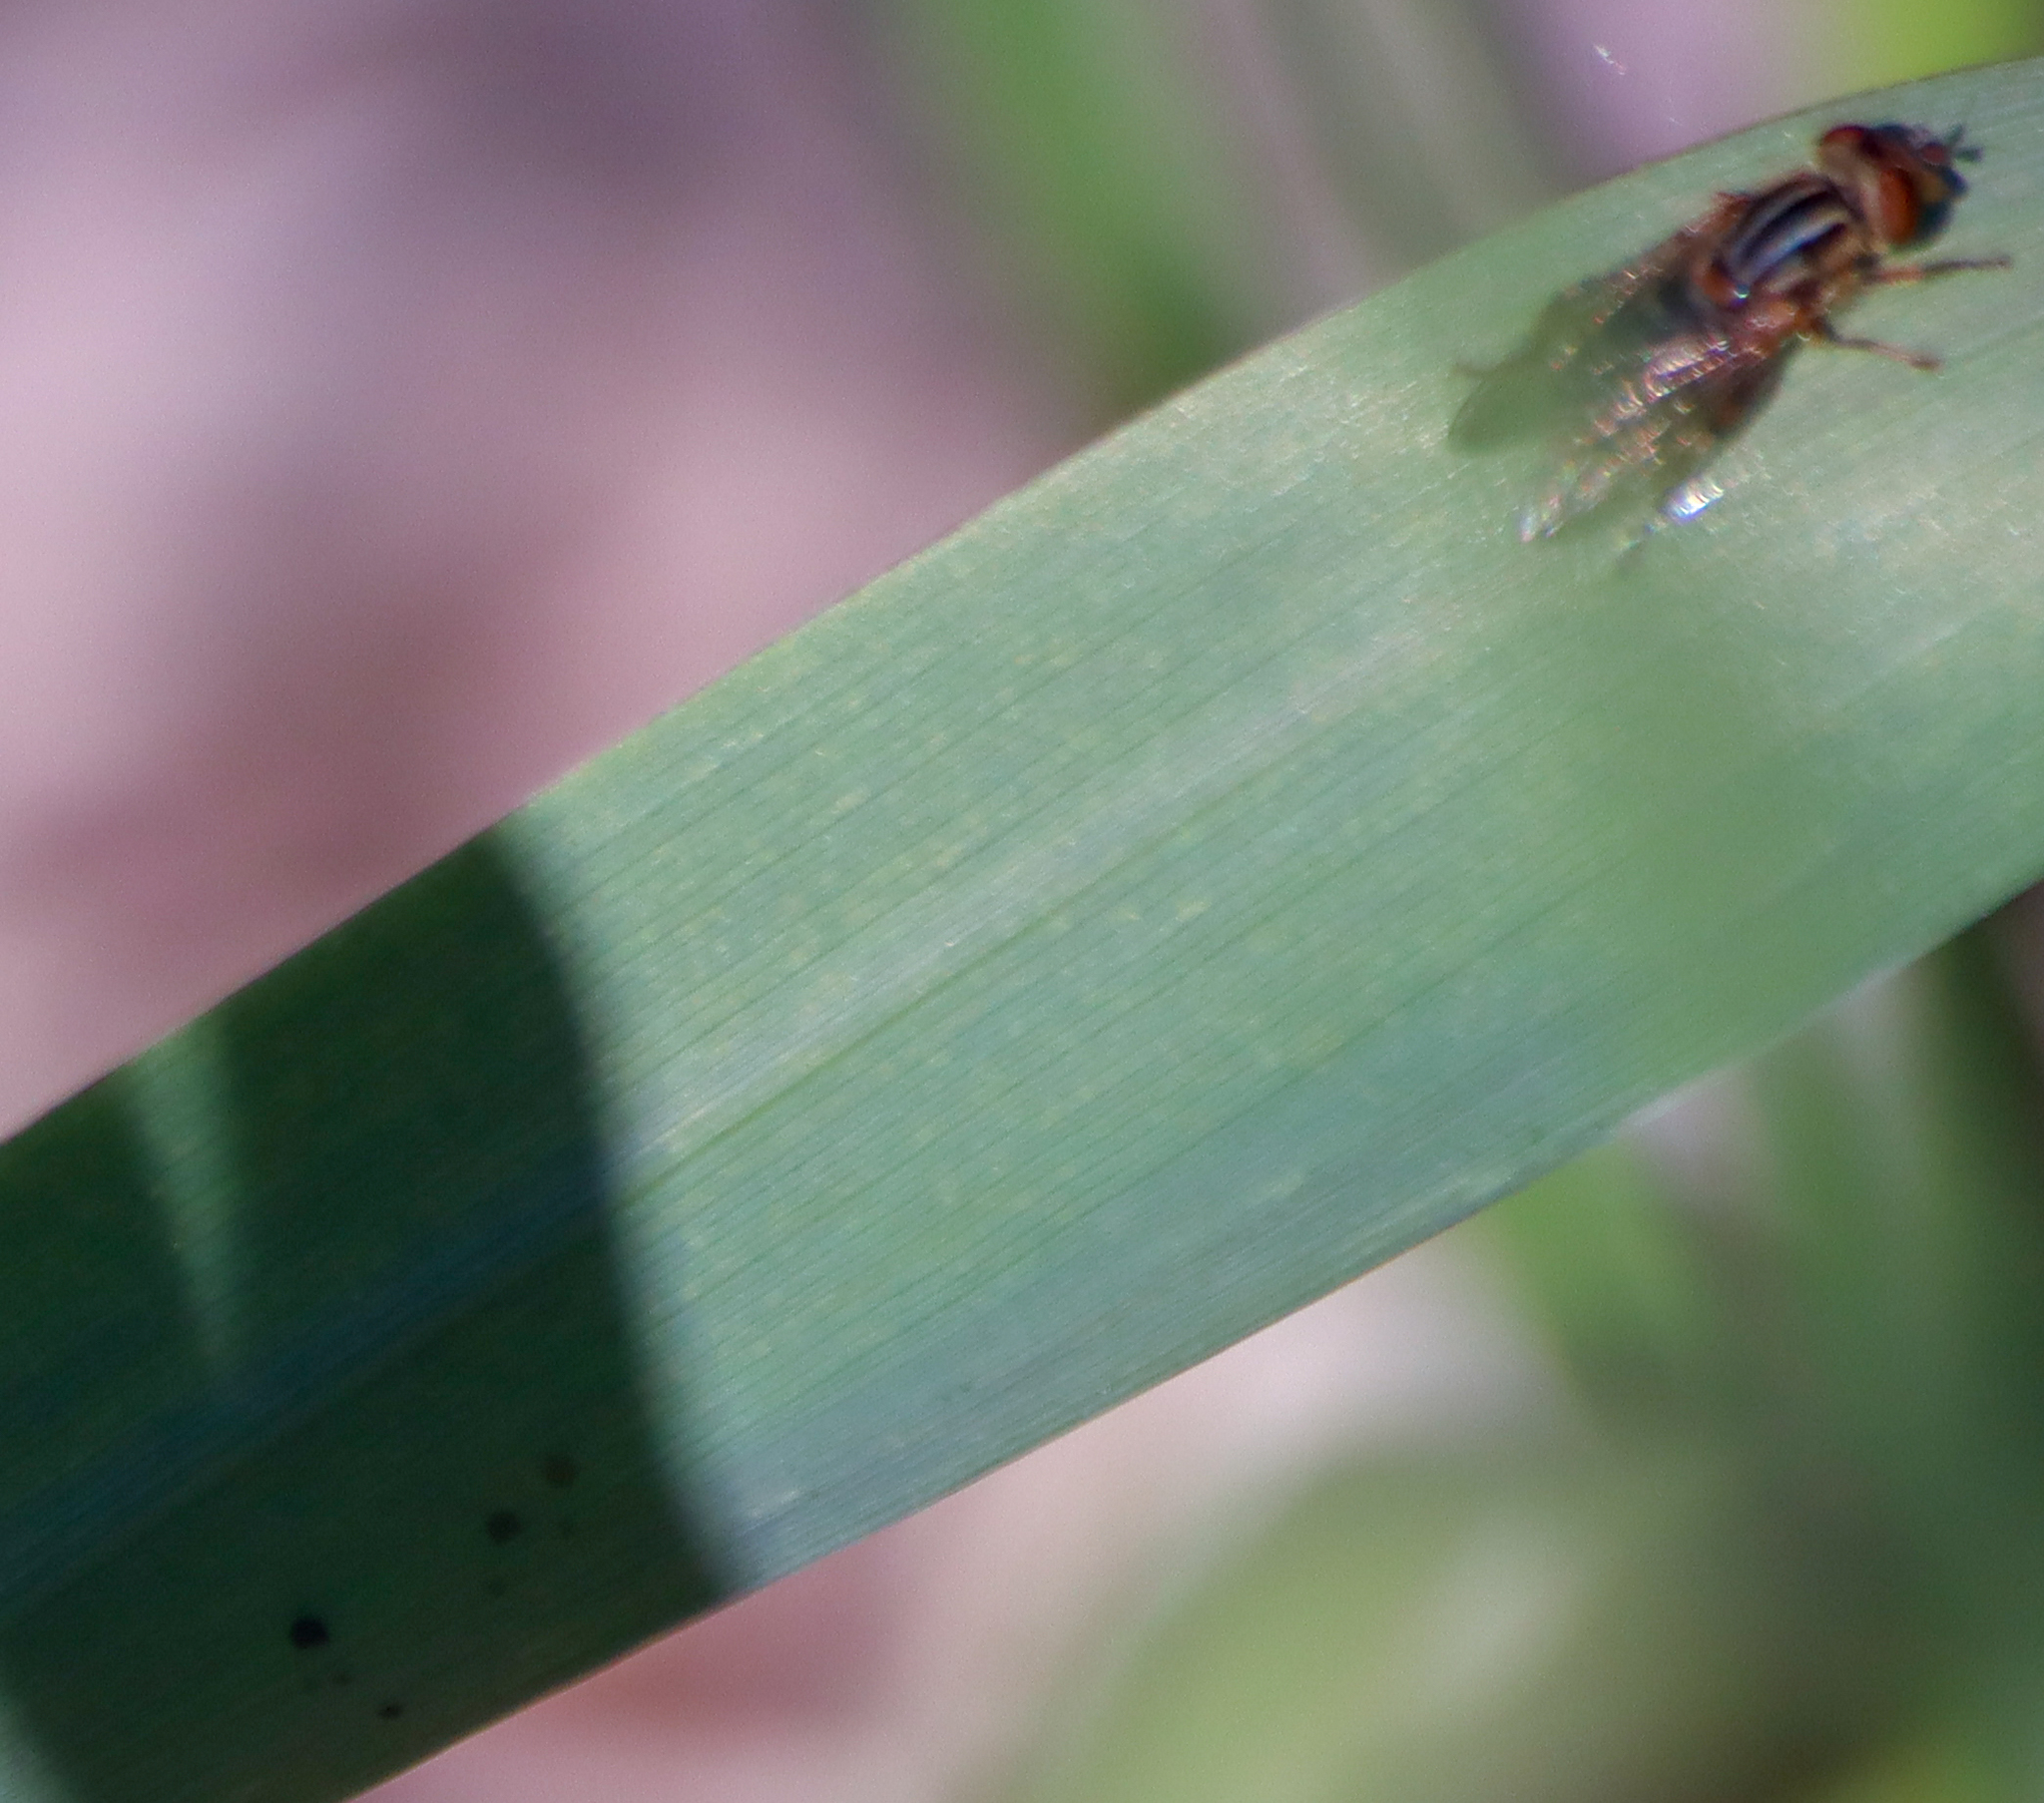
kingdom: Animalia
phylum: Arthropoda
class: Insecta
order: Diptera
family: Syrphidae
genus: Eurimyia
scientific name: Eurimyia stipatus
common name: Long-nosed swamp fly
